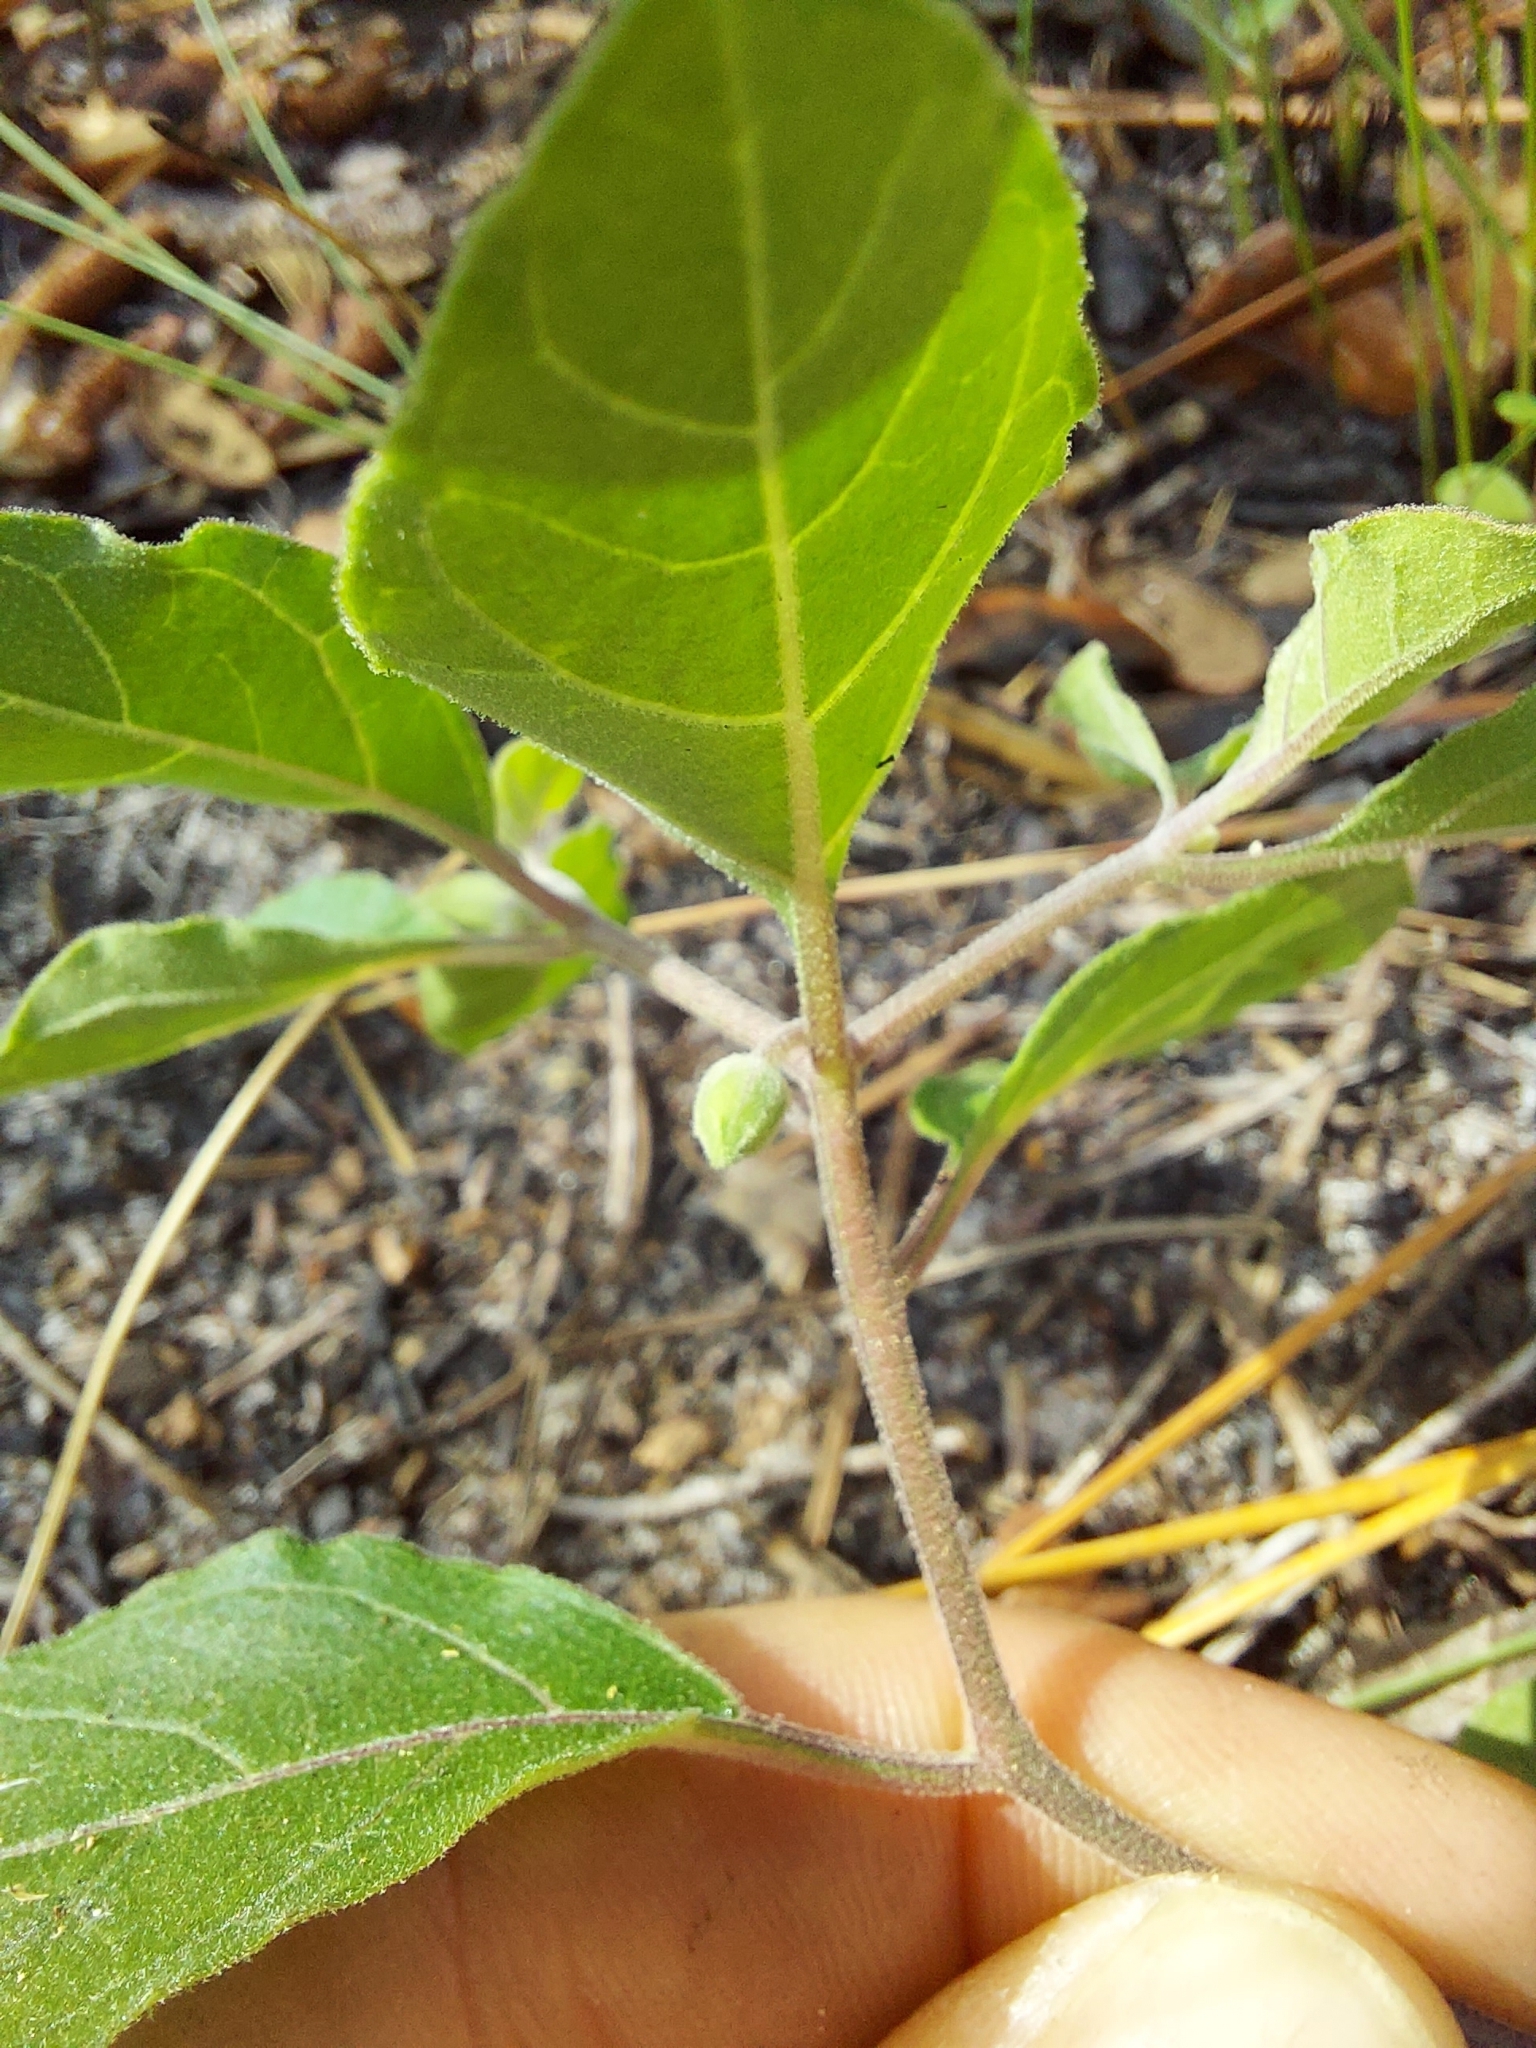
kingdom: Plantae
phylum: Tracheophyta
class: Magnoliopsida
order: Solanales
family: Solanaceae
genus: Physalis
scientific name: Physalis walteri
